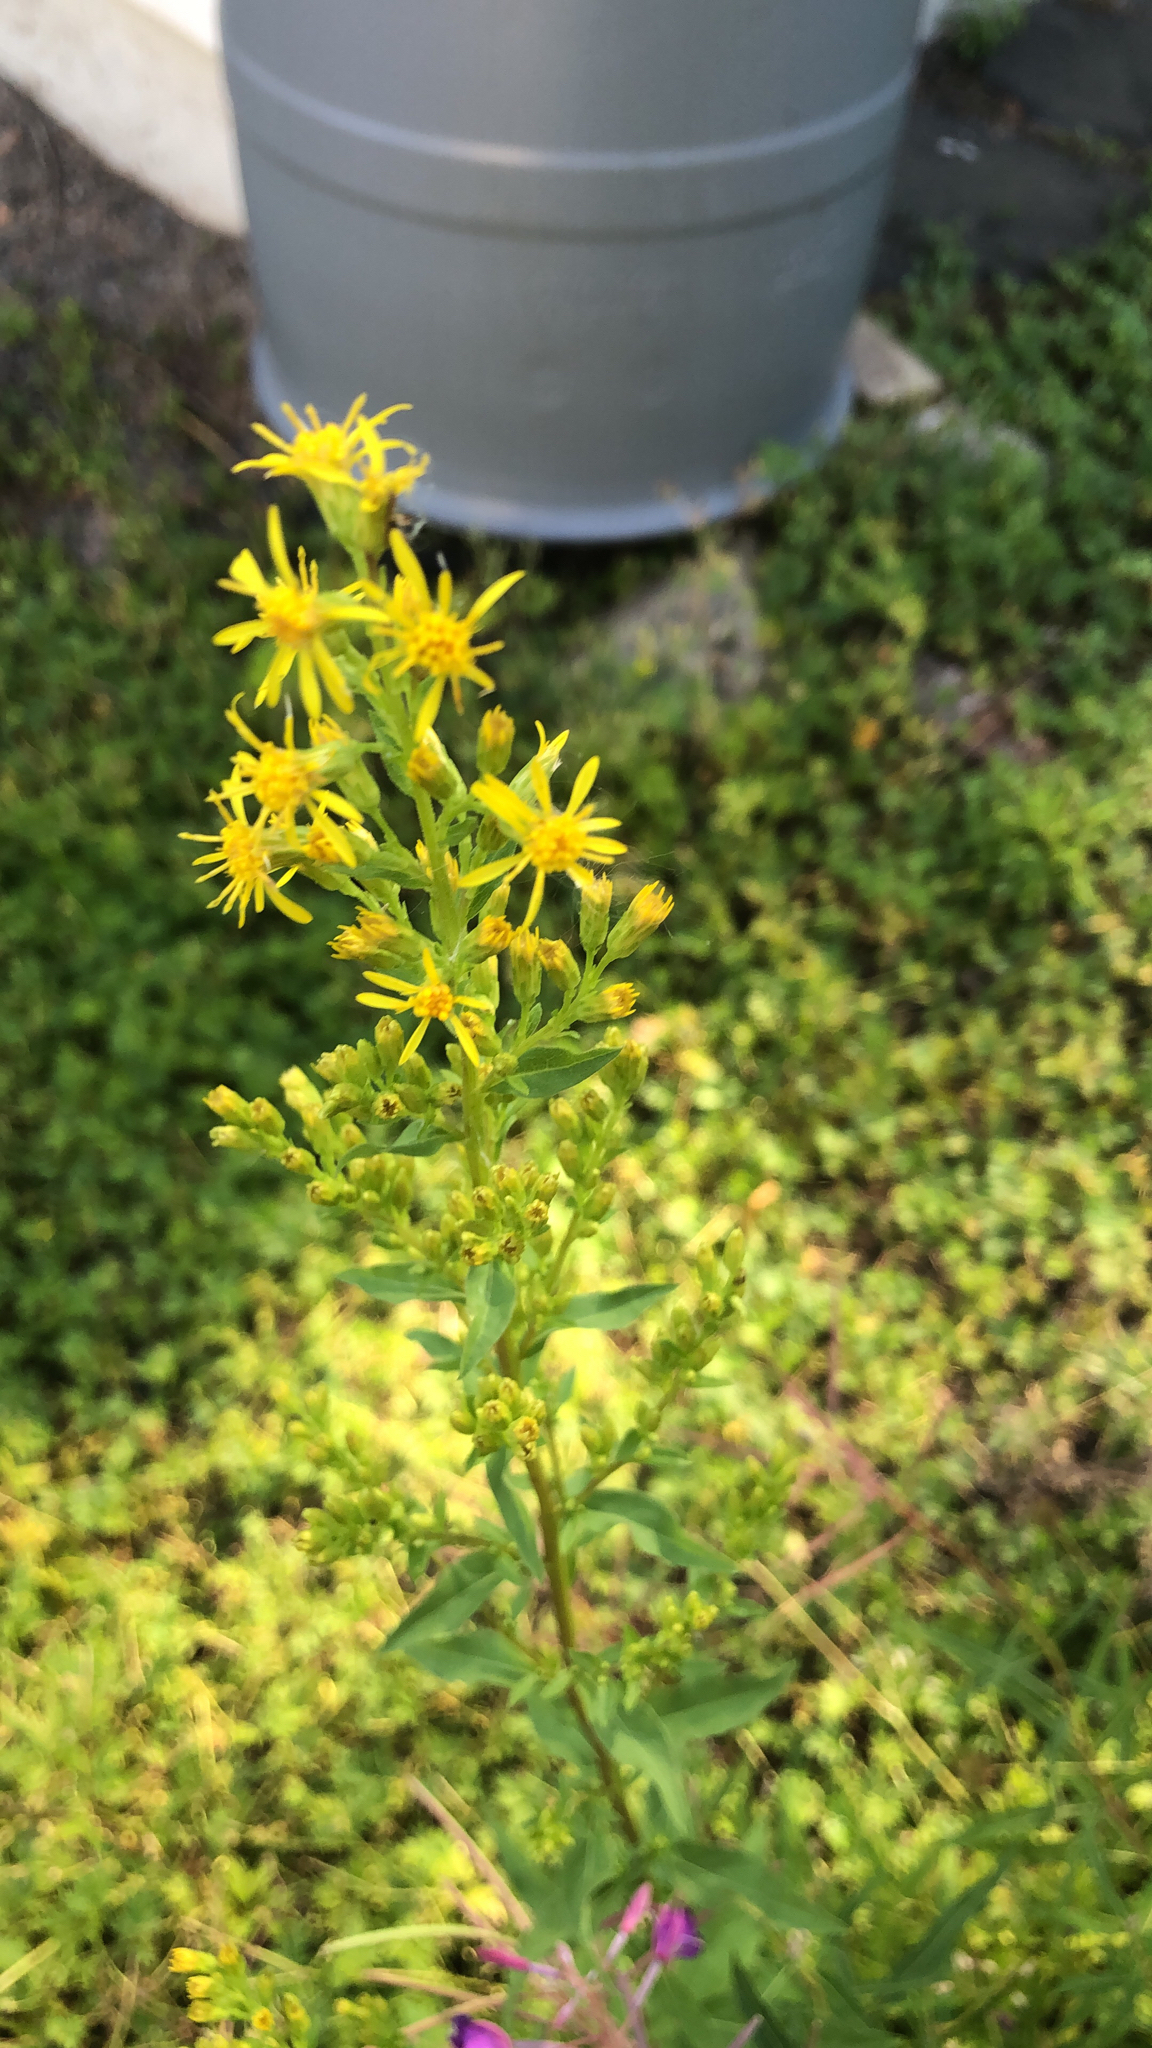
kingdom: Plantae
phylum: Tracheophyta
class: Magnoliopsida
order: Asterales
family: Asteraceae
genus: Solidago
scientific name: Solidago virgaurea
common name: Goldenrod
